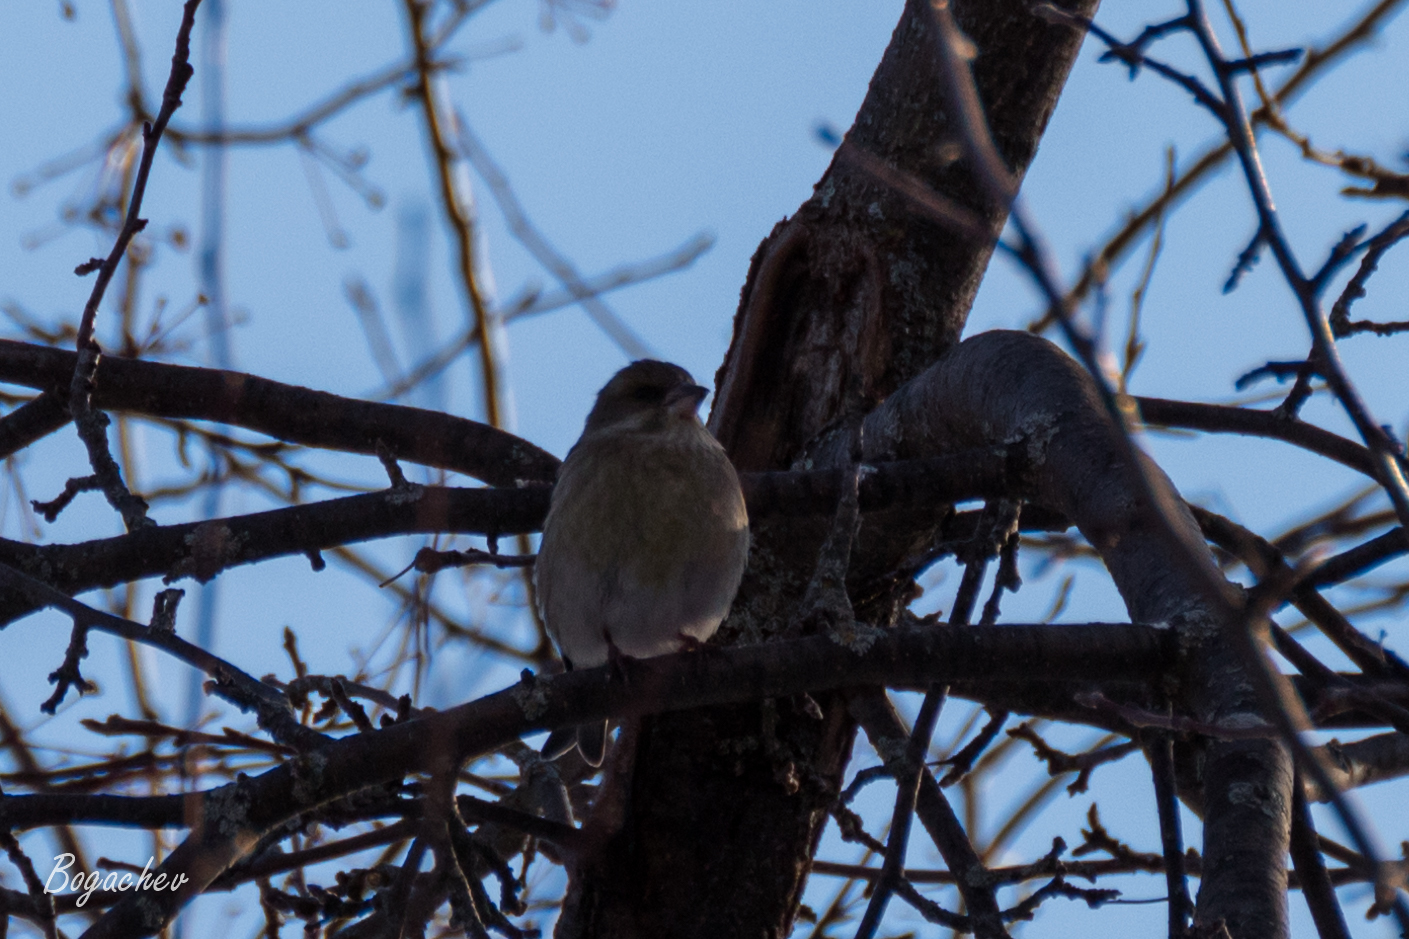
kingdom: Plantae
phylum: Tracheophyta
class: Liliopsida
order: Poales
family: Poaceae
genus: Chloris
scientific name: Chloris chloris
